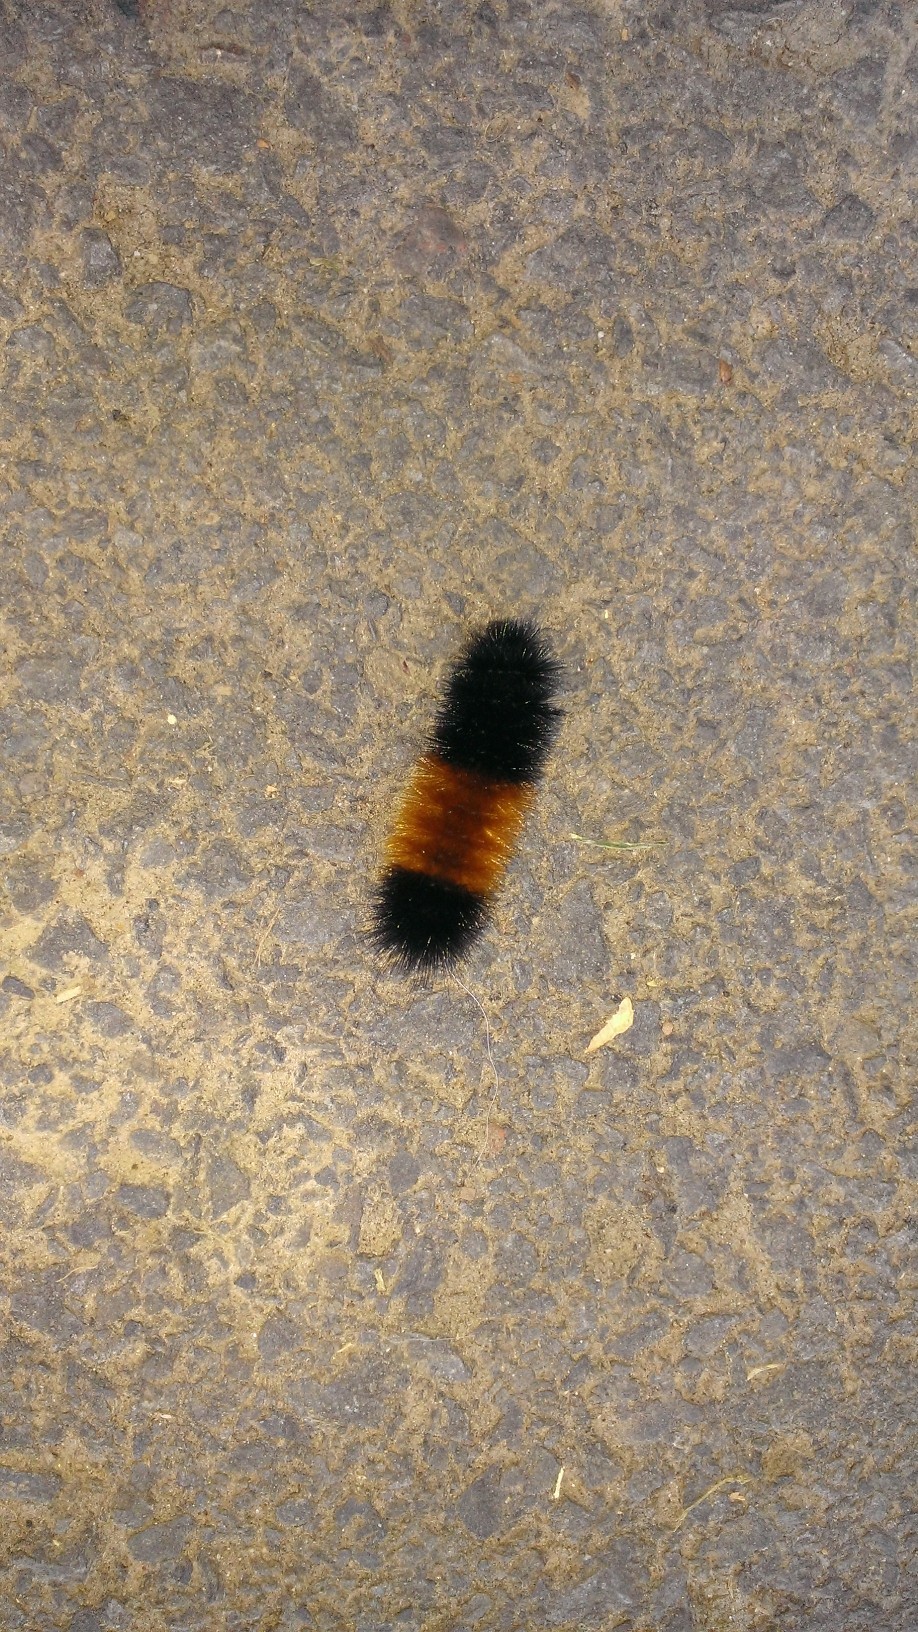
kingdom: Animalia
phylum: Arthropoda
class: Insecta
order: Lepidoptera
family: Erebidae
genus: Pyrrharctia
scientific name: Pyrrharctia isabella
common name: Isabella tiger moth
